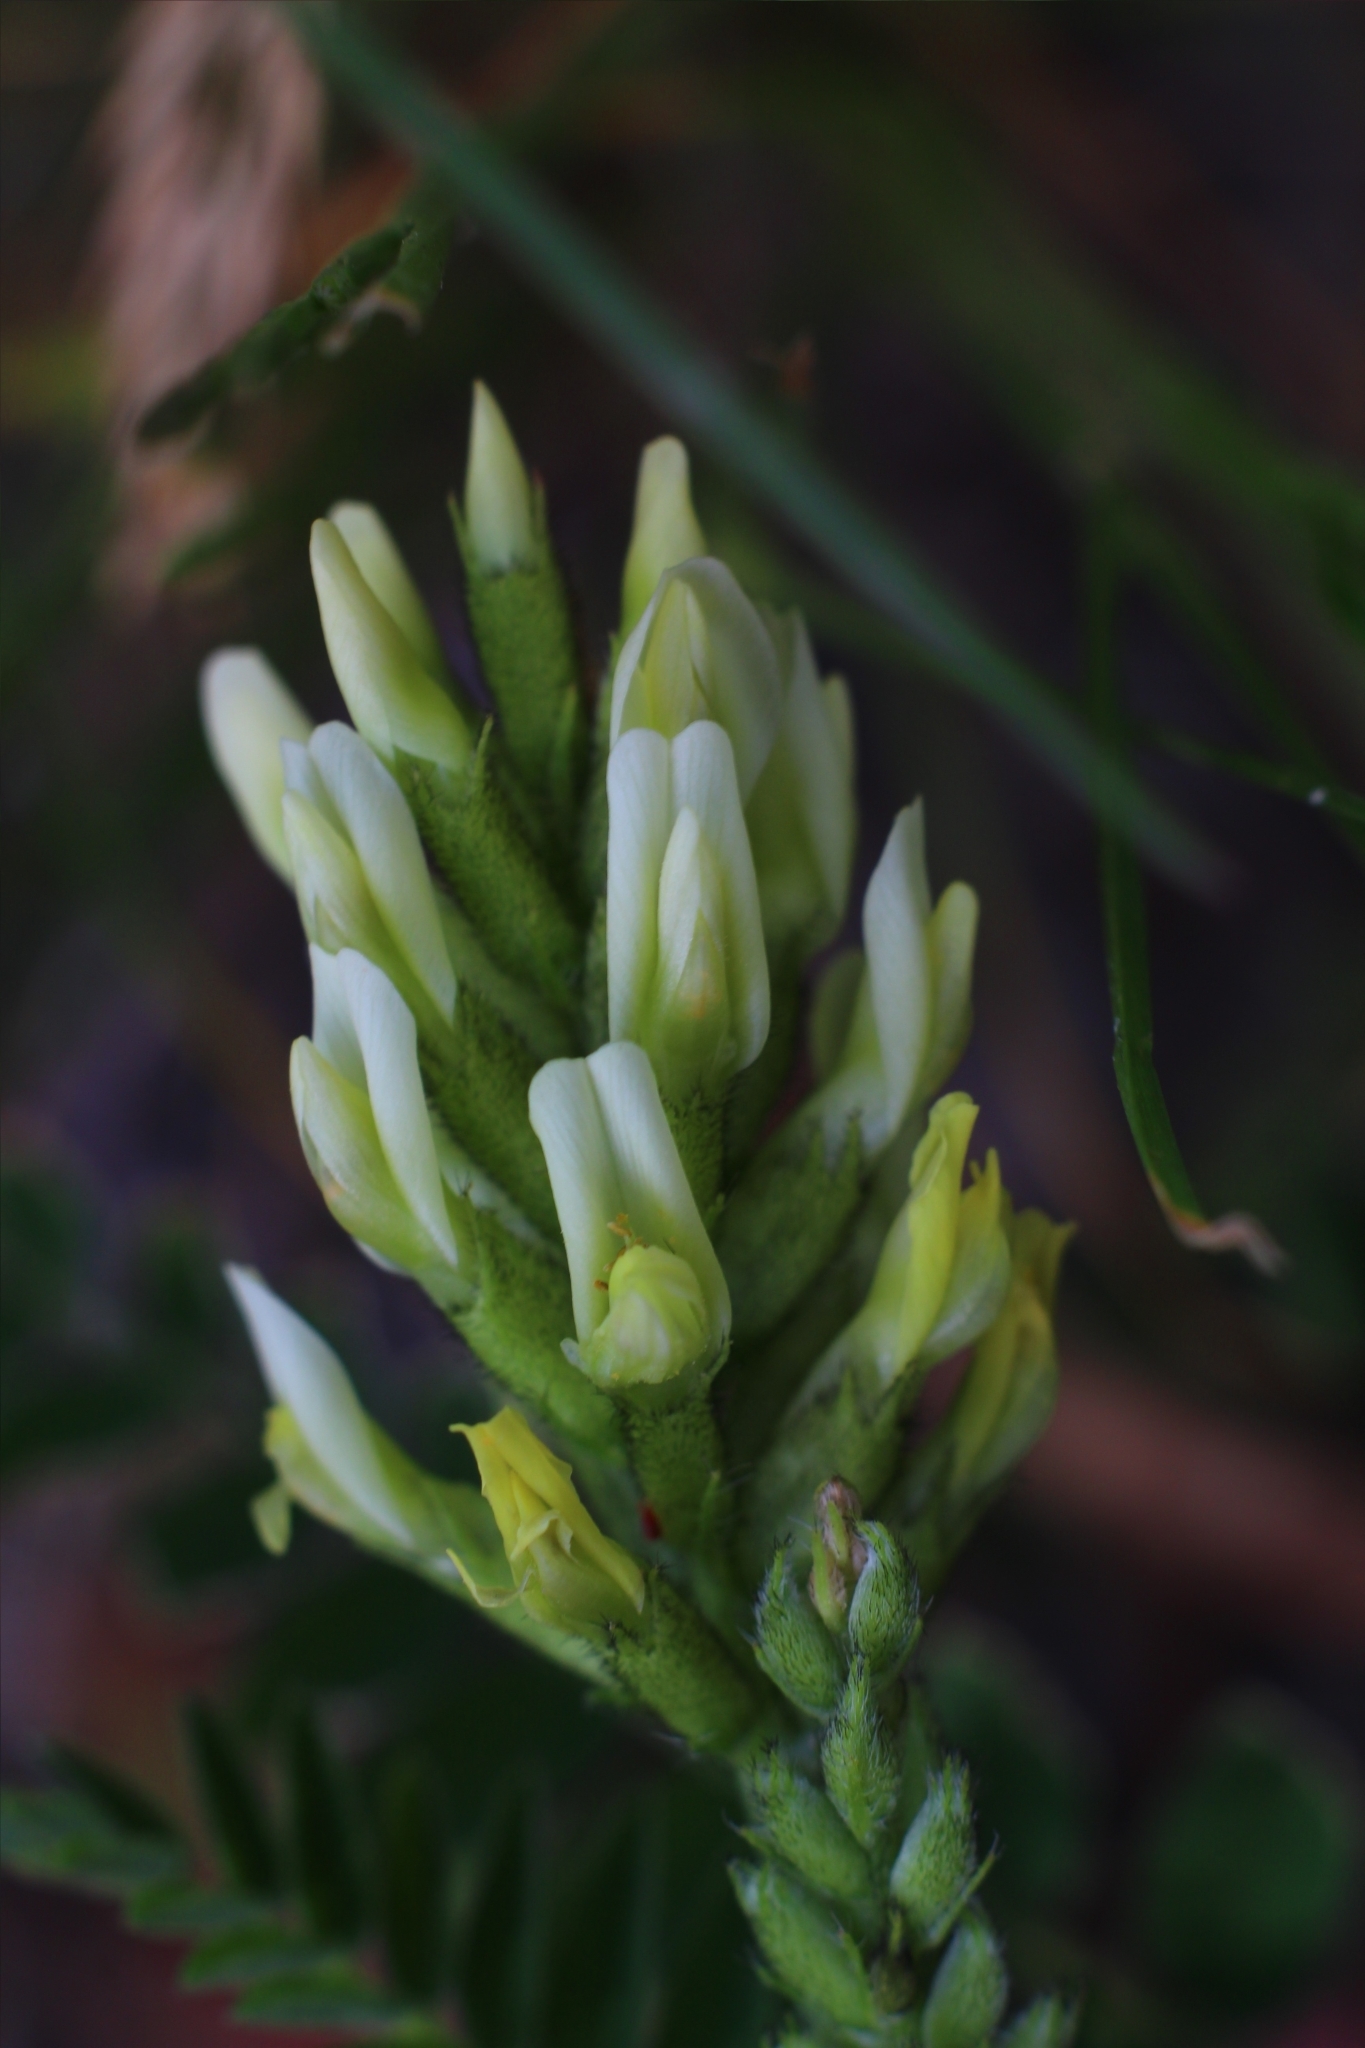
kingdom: Plantae
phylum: Tracheophyta
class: Magnoliopsida
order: Fabales
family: Fabaceae
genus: Astragalus
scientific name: Astragalus cicer
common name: Chick-pea milk-vetch
